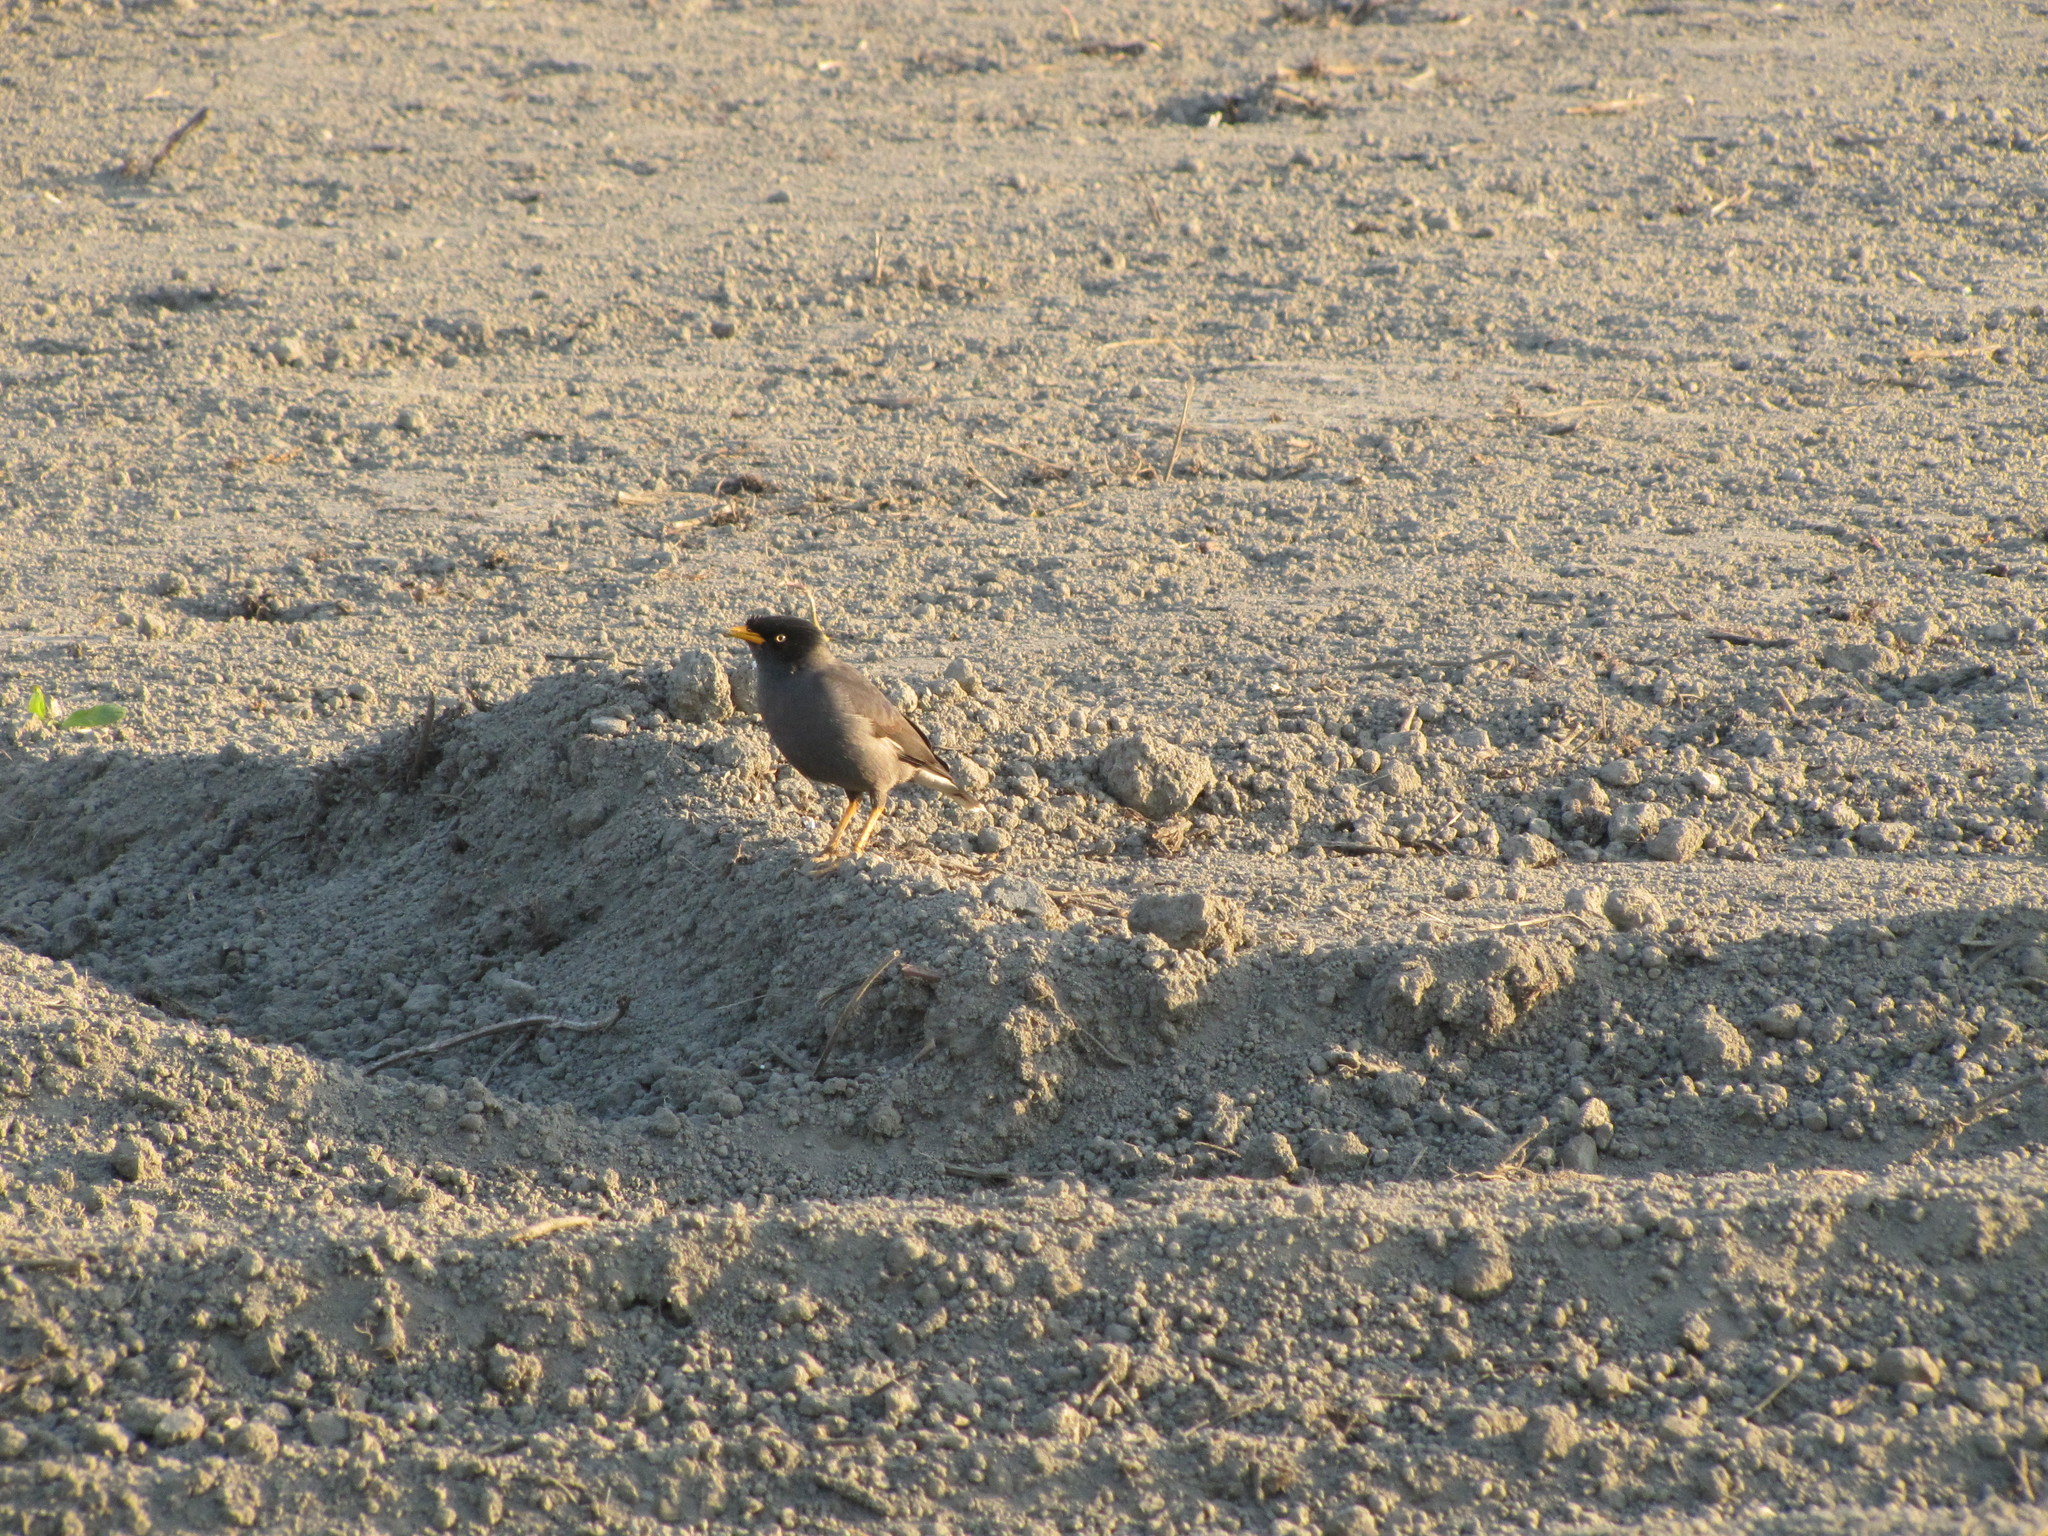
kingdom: Animalia
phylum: Chordata
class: Aves
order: Passeriformes
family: Sturnidae
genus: Acridotheres
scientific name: Acridotheres javanicus
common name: Javan myna
